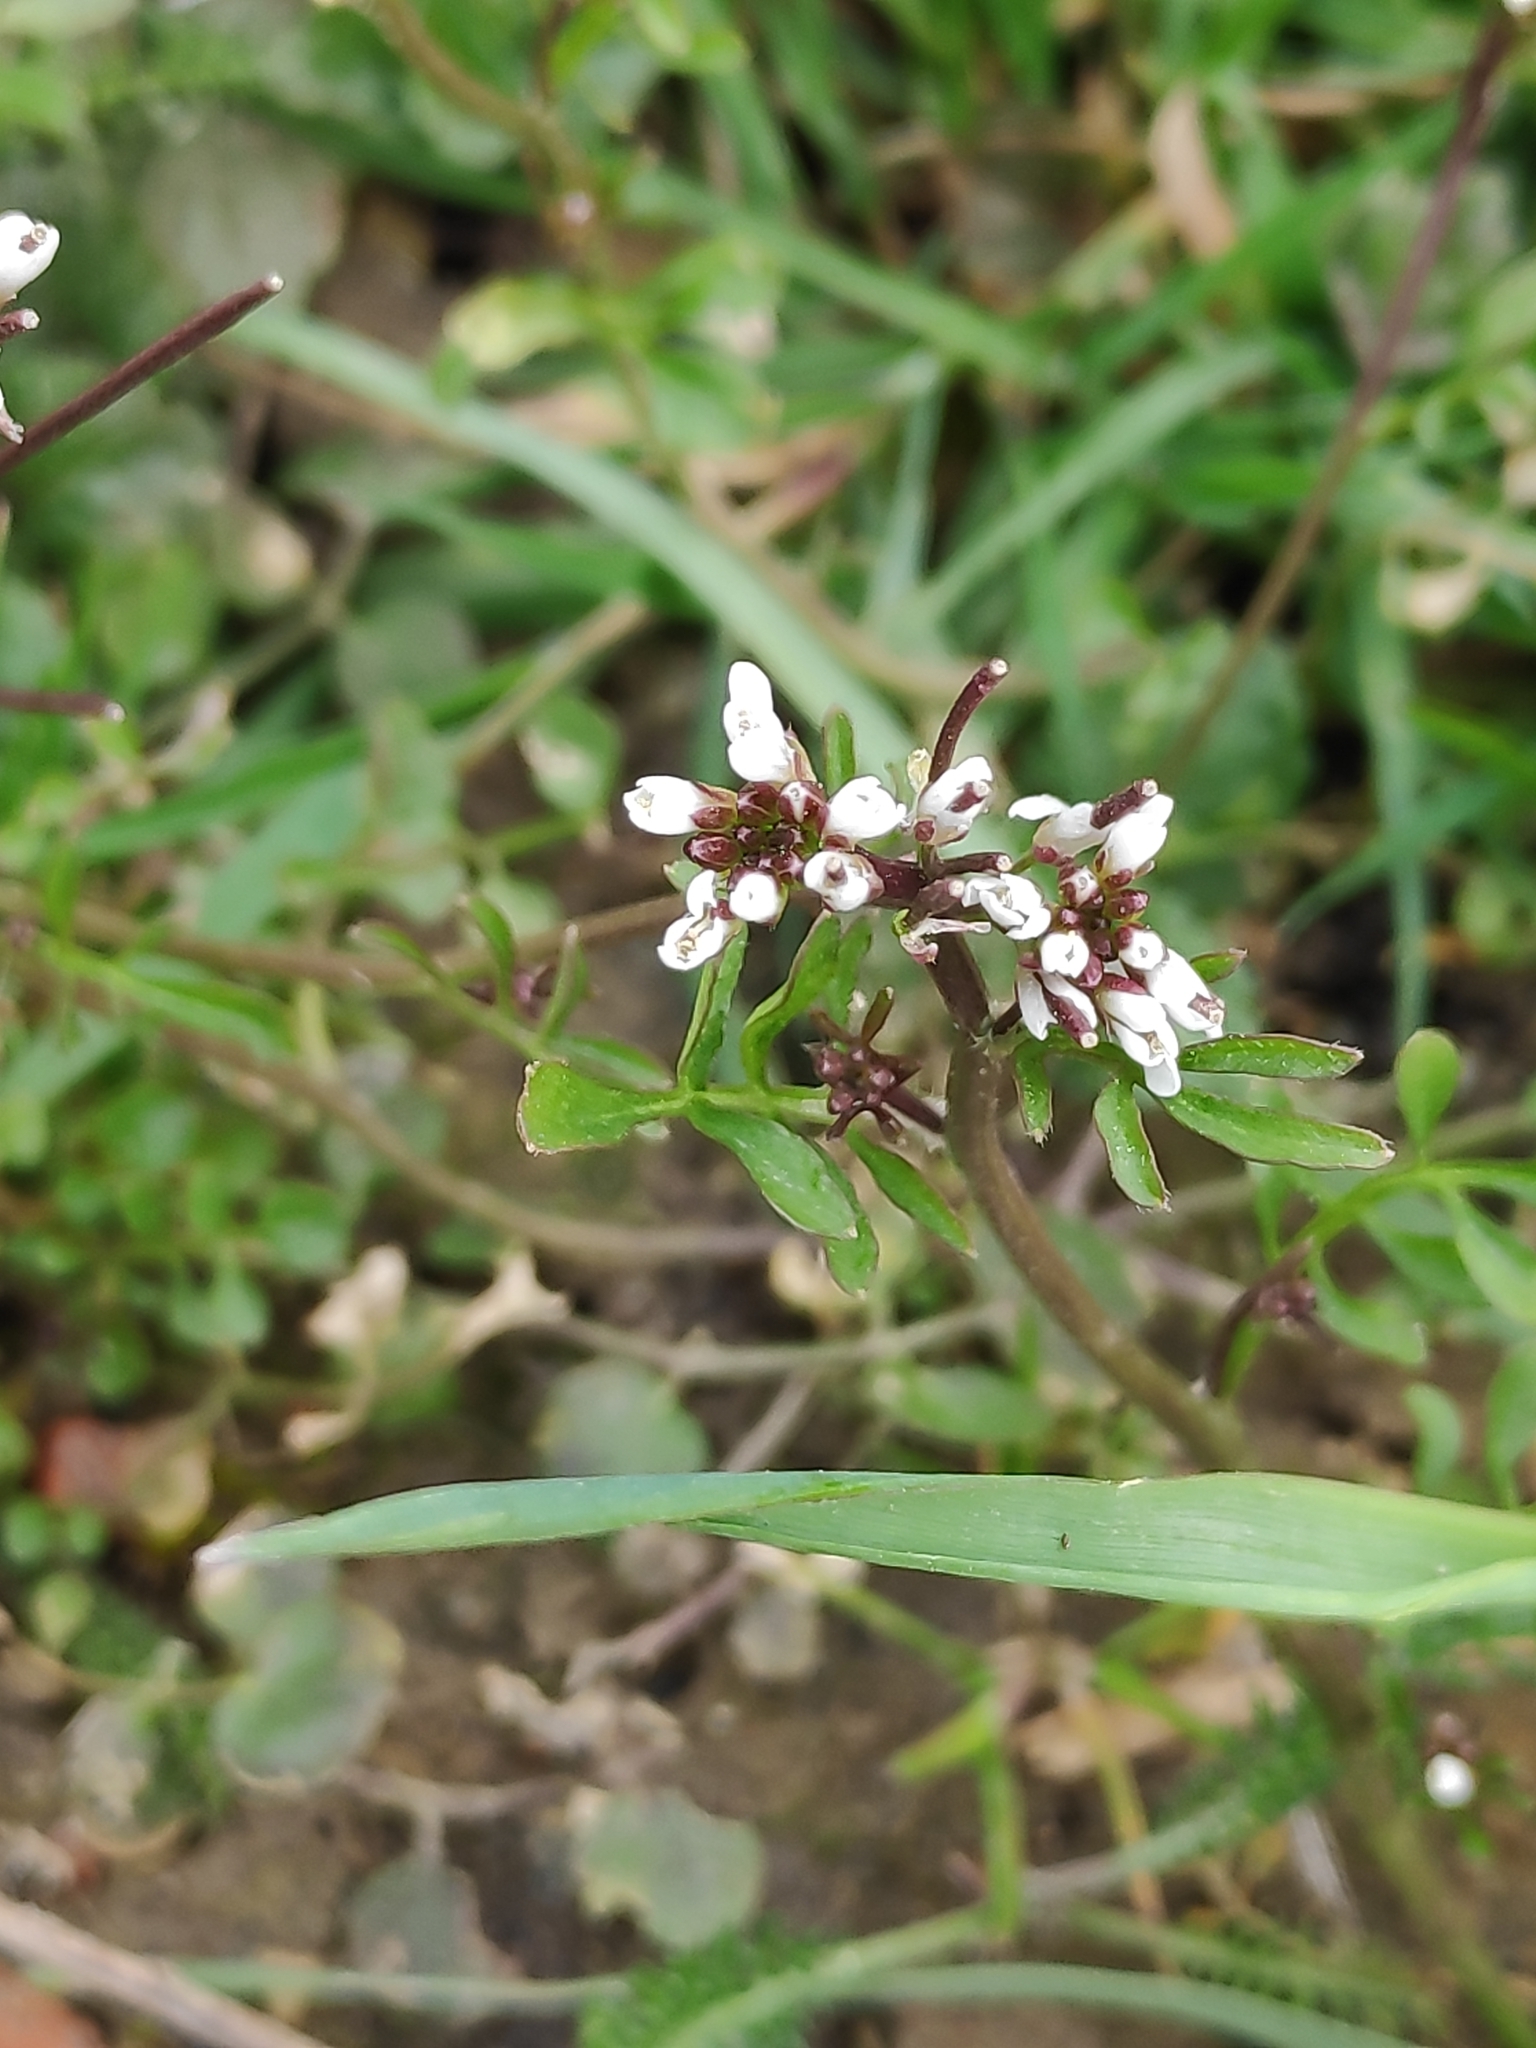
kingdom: Plantae
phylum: Tracheophyta
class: Magnoliopsida
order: Brassicales
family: Brassicaceae
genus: Cardamine
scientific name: Cardamine hirsuta
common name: Hairy bittercress
